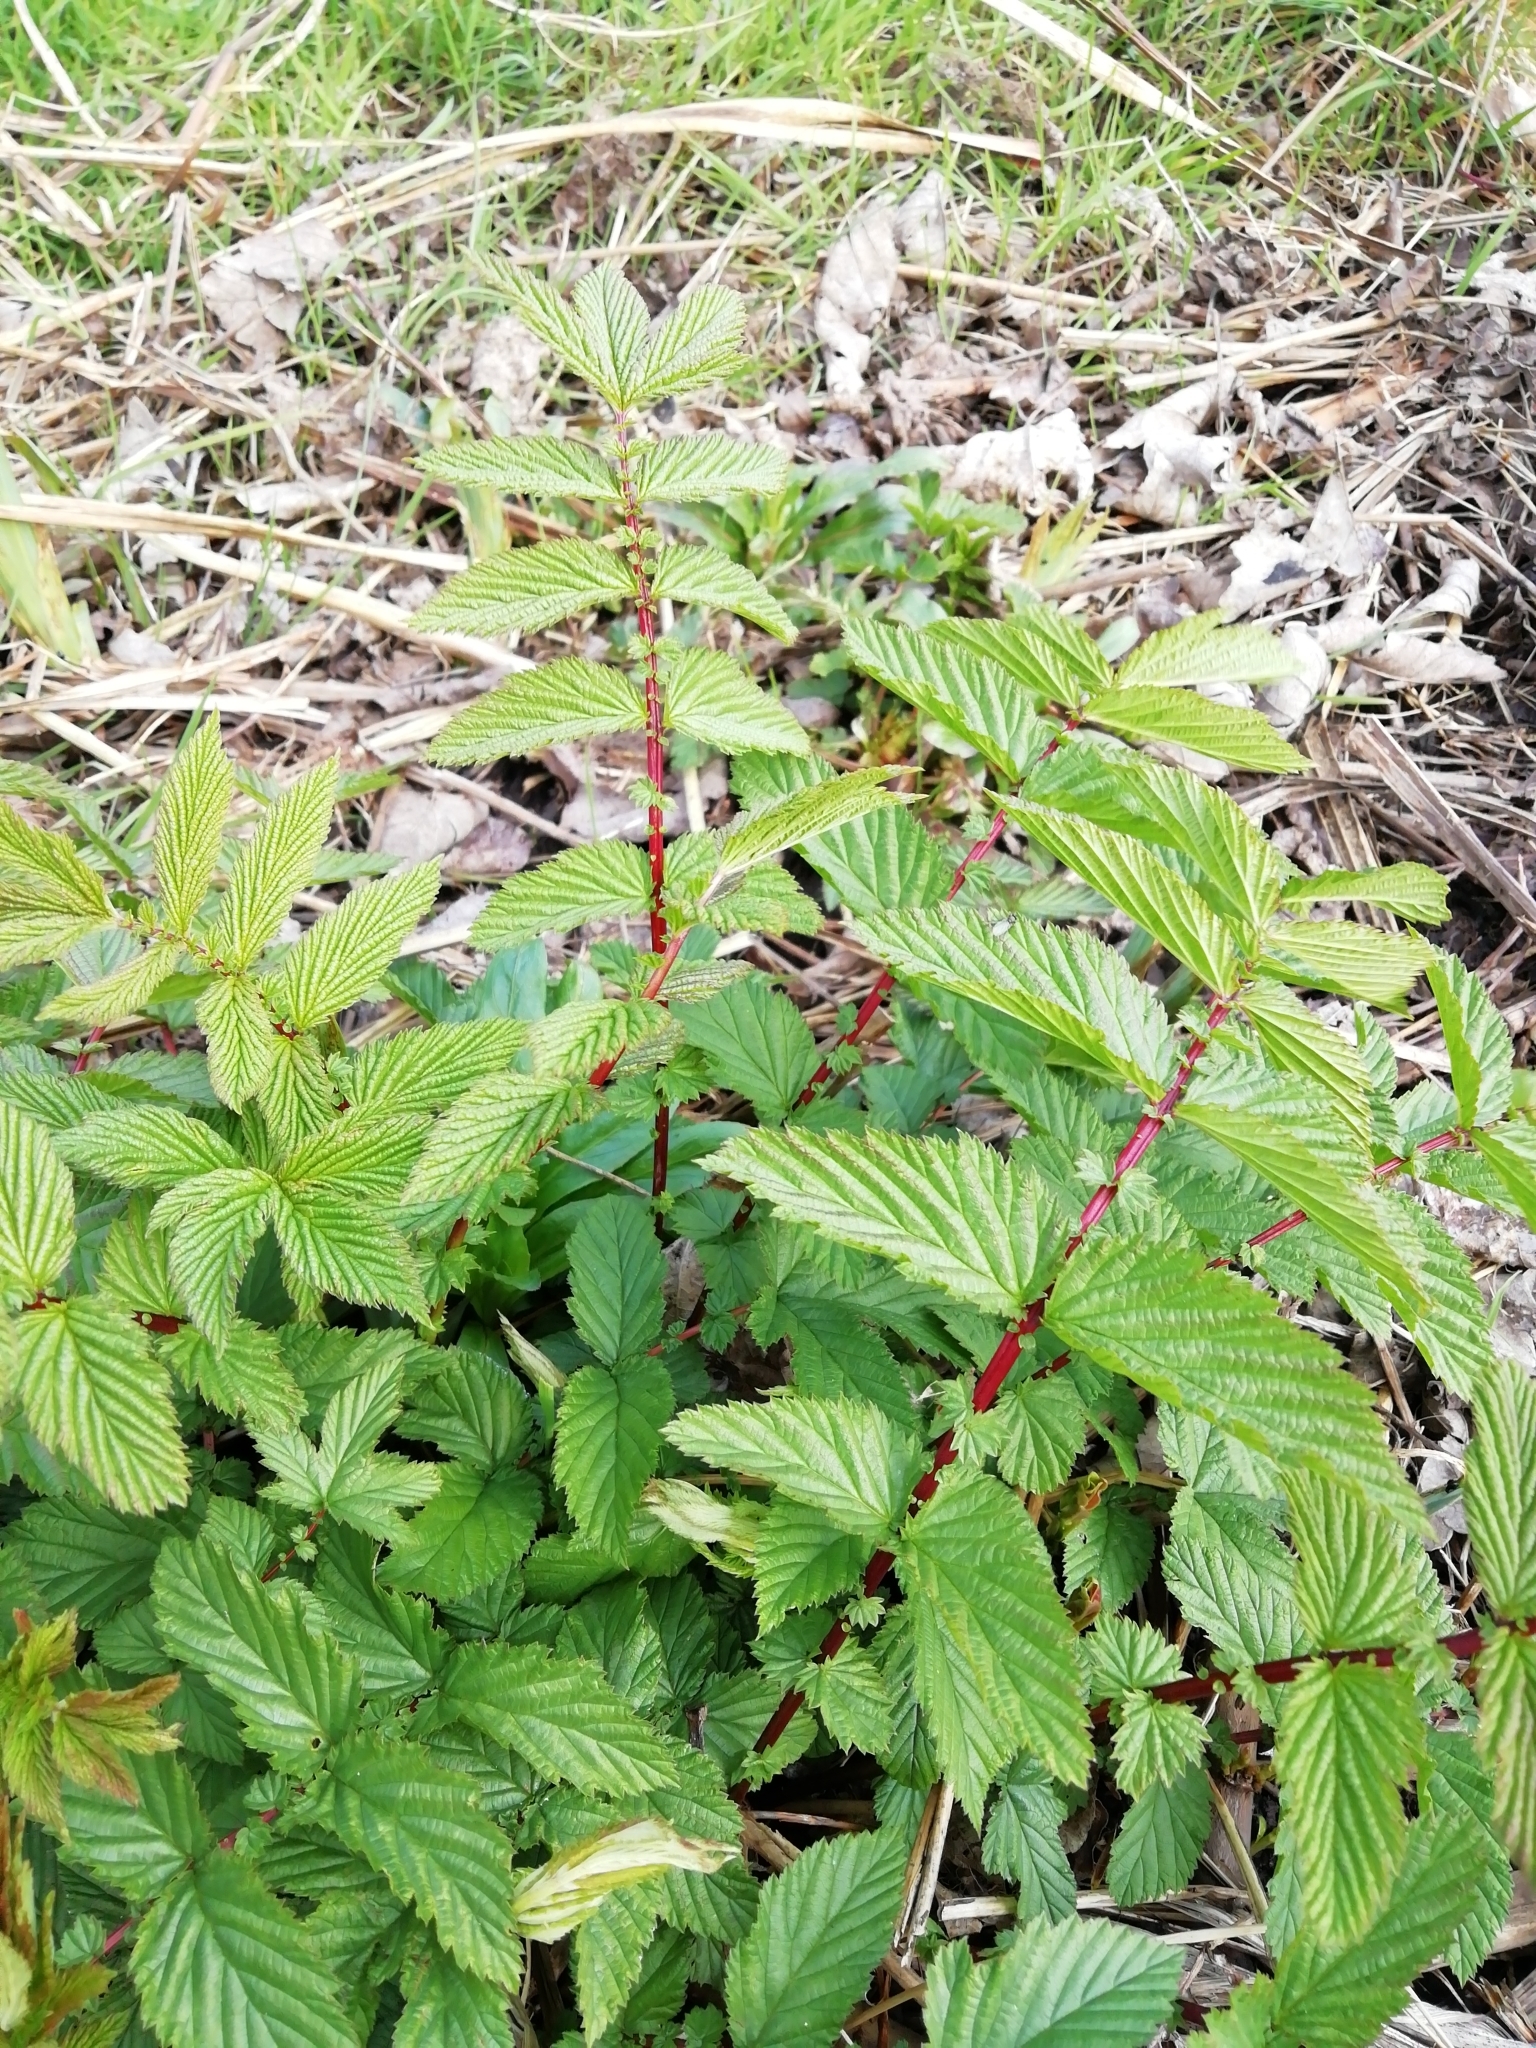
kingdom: Plantae
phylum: Tracheophyta
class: Magnoliopsida
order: Rosales
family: Rosaceae
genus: Filipendula
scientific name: Filipendula ulmaria
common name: Meadowsweet
